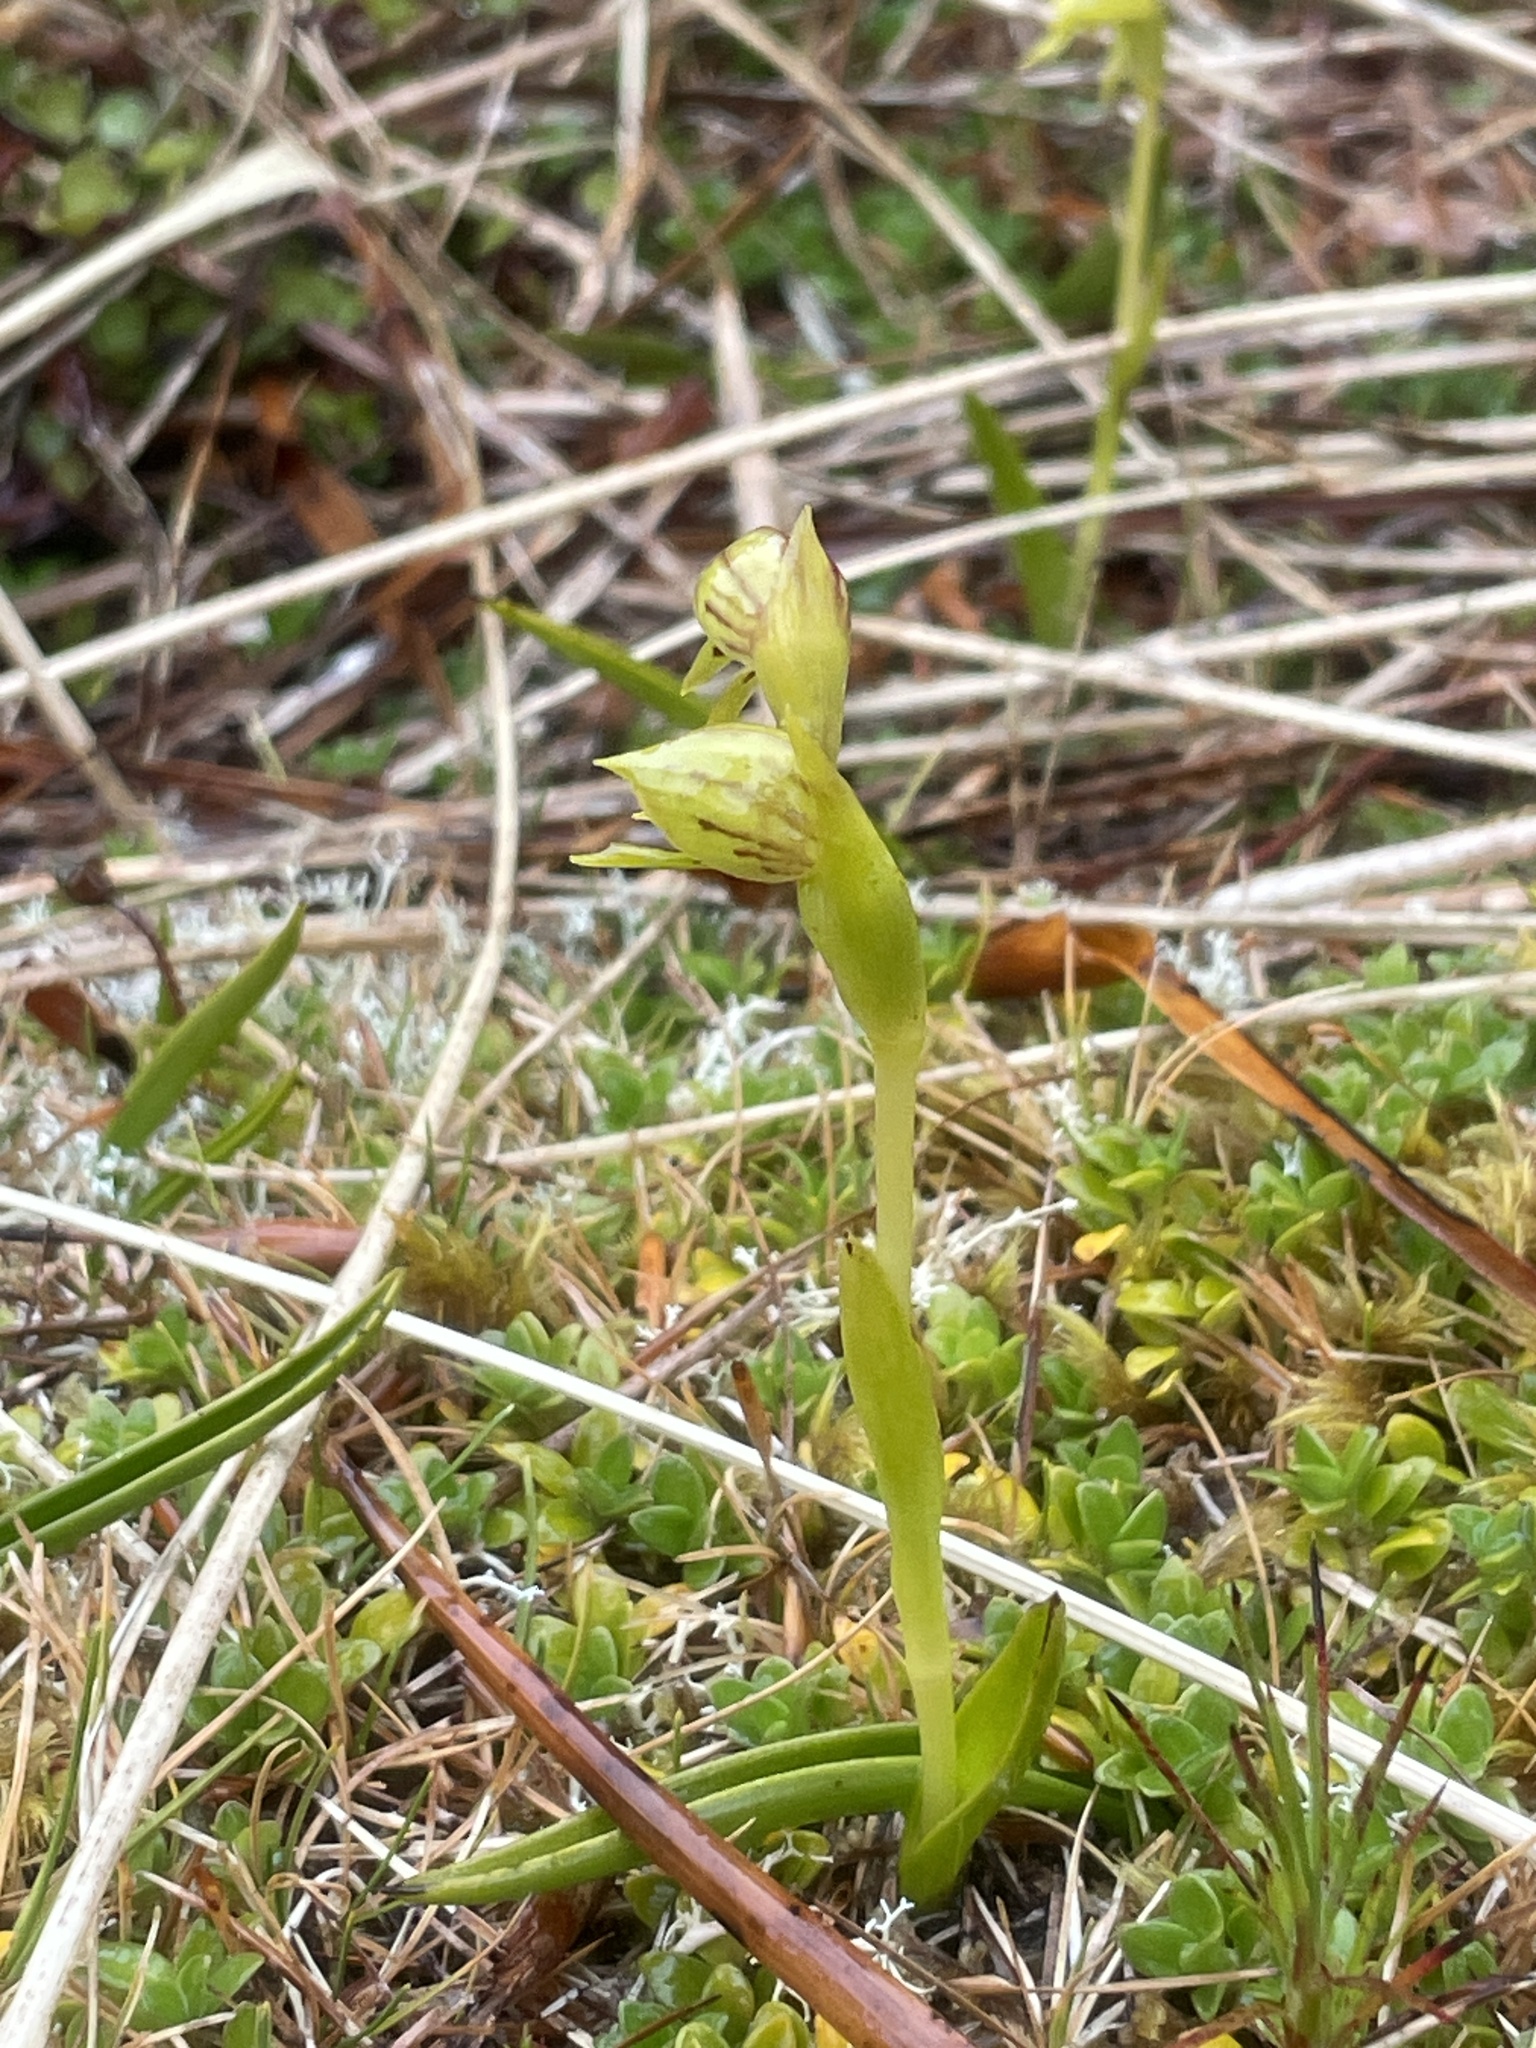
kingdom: Plantae
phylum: Tracheophyta
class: Liliopsida
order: Asparagales
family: Orchidaceae
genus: Waireia
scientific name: Waireia stenopetala
